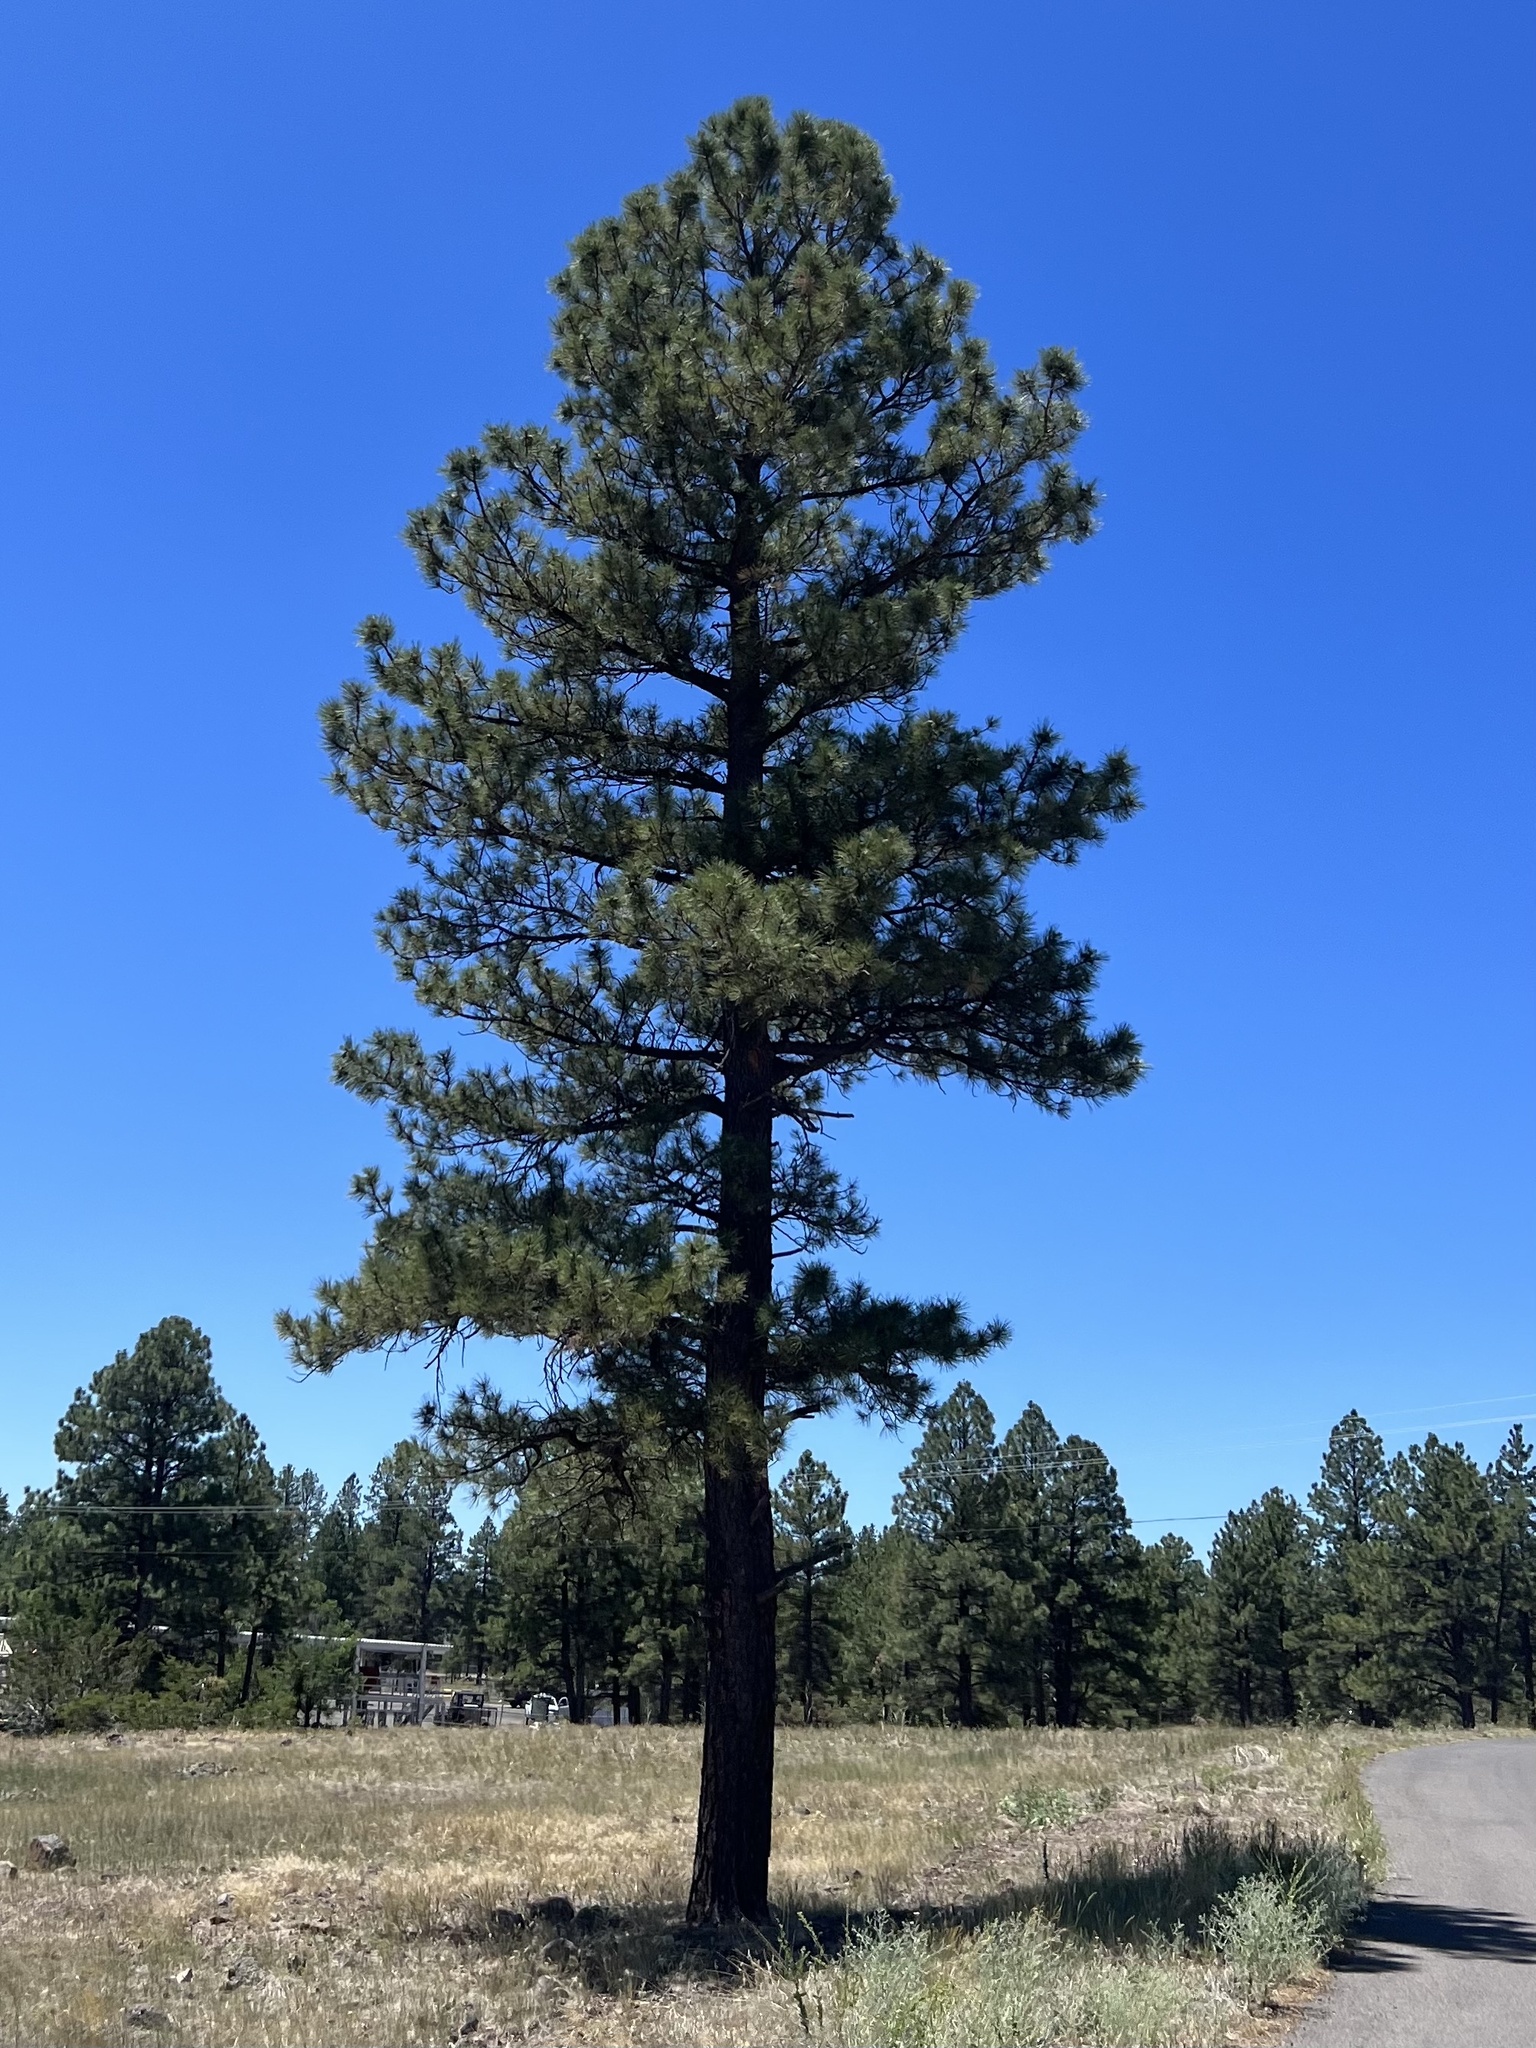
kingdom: Plantae
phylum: Tracheophyta
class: Pinopsida
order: Pinales
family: Pinaceae
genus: Pinus
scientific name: Pinus ponderosa
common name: Western yellow-pine
